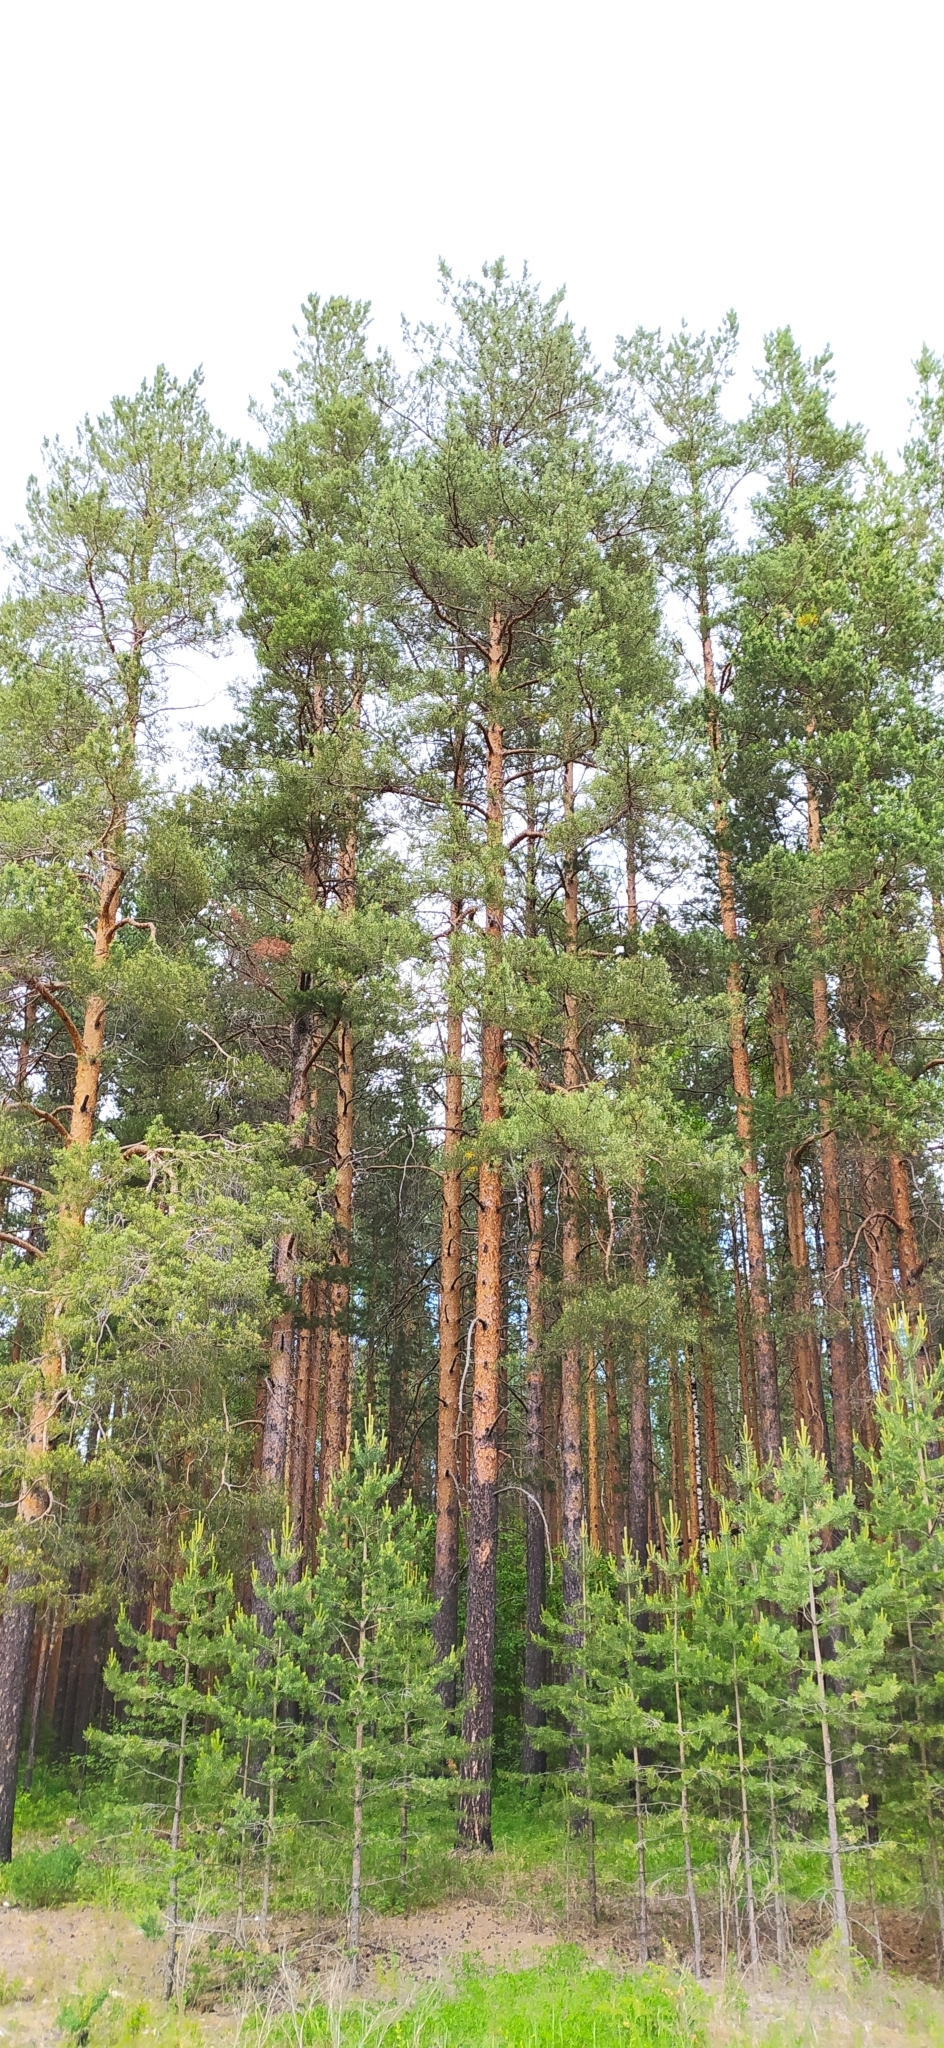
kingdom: Plantae
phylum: Tracheophyta
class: Pinopsida
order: Pinales
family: Pinaceae
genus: Pinus
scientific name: Pinus sylvestris
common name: Scots pine
